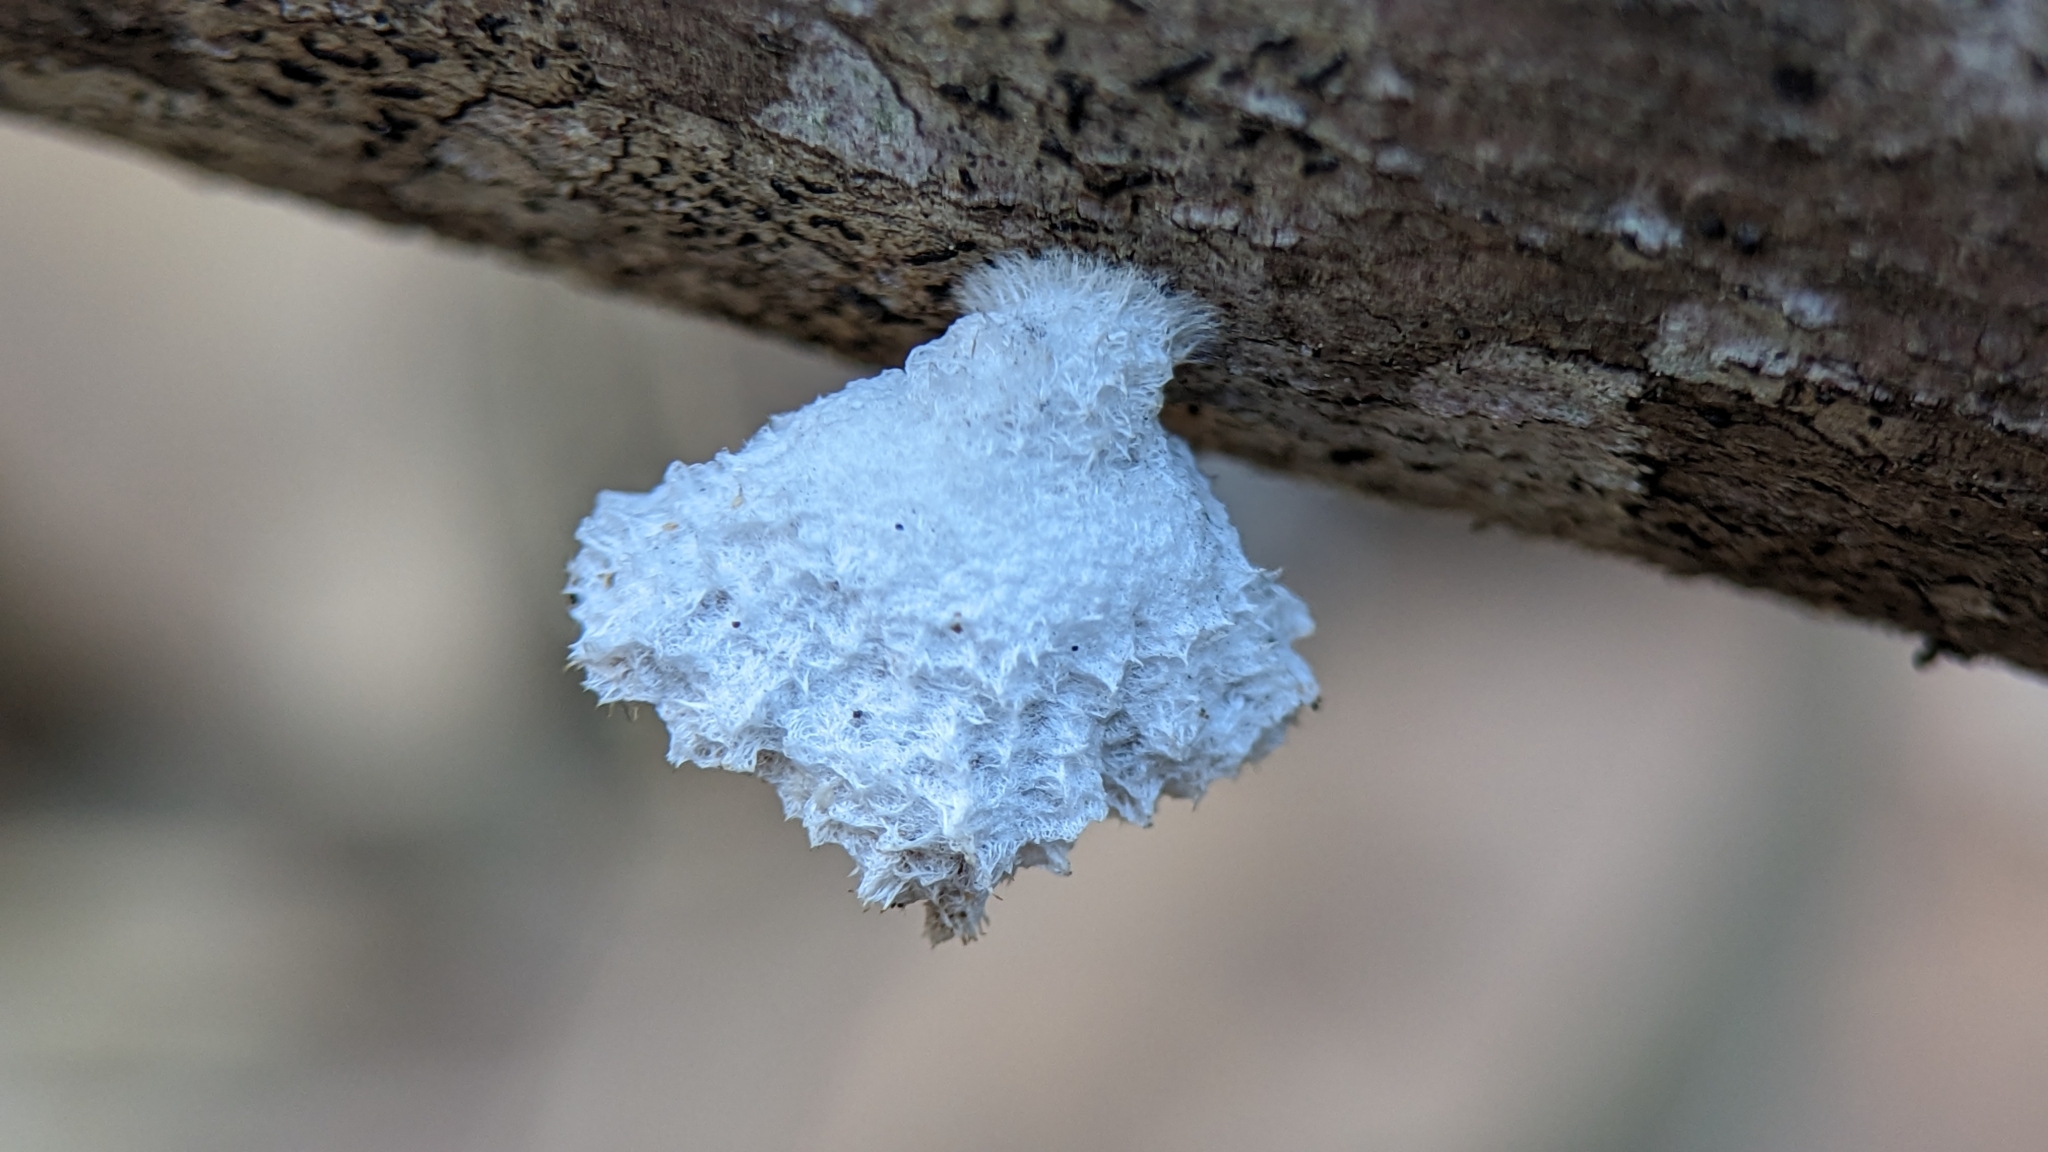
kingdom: Fungi
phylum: Basidiomycota
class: Agaricomycetes
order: Agaricales
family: Schizophyllaceae
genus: Schizophyllum
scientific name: Schizophyllum commune
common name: Common porecrust
